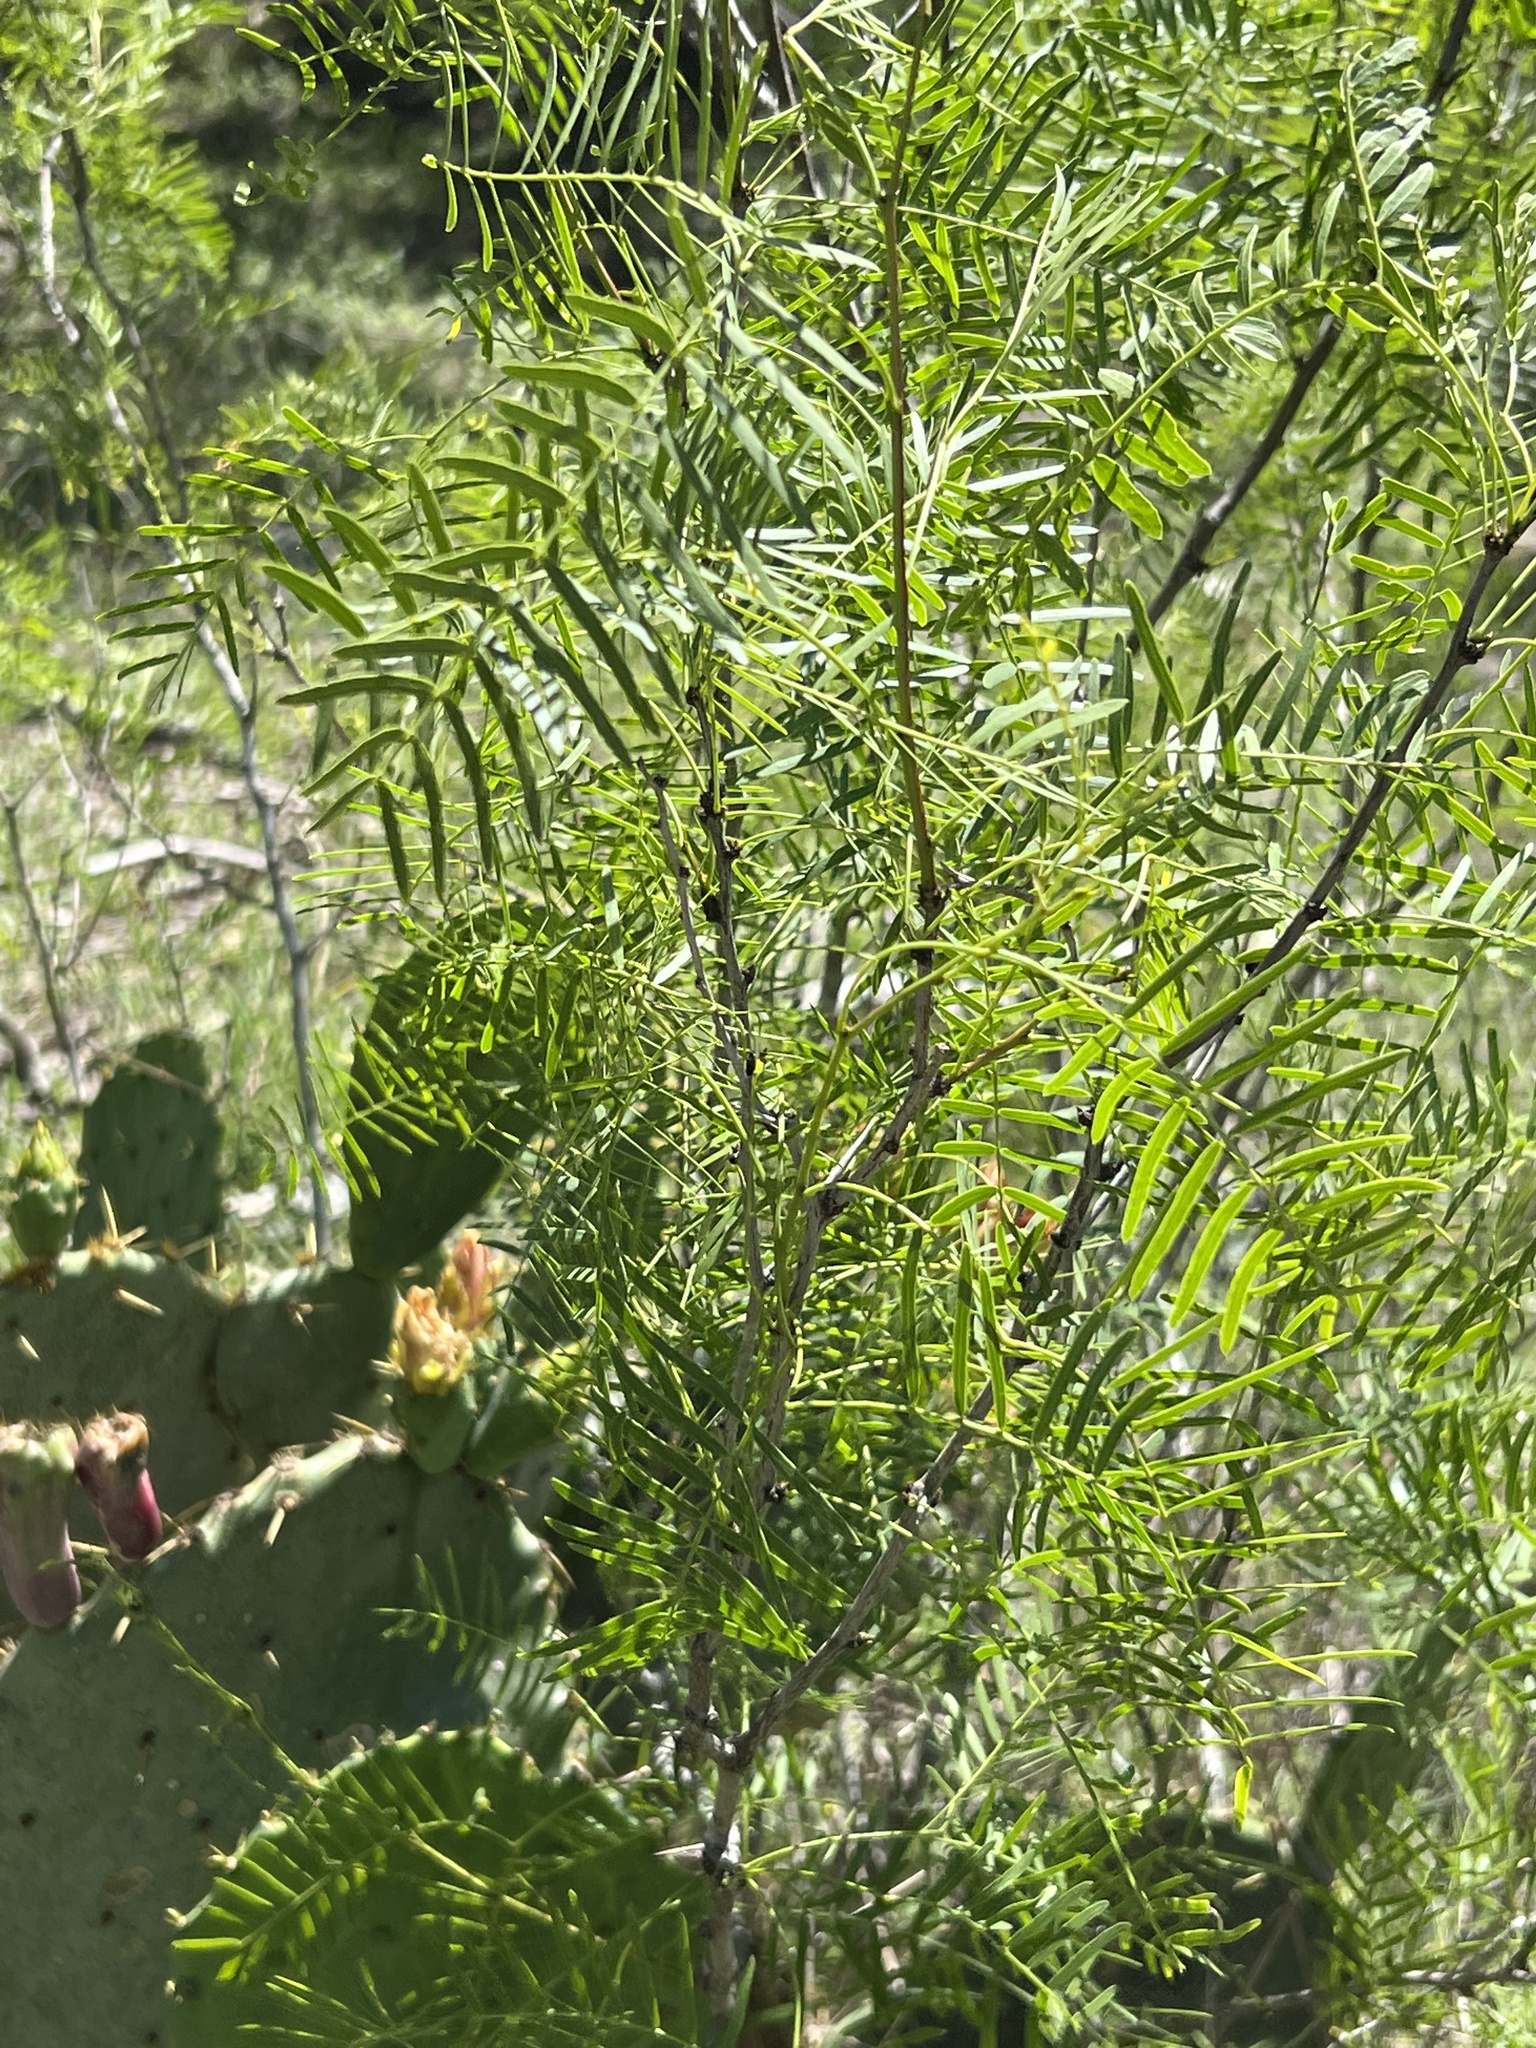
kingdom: Plantae
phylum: Tracheophyta
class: Magnoliopsida
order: Fabales
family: Fabaceae
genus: Prosopis
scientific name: Prosopis glandulosa
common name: Honey mesquite
